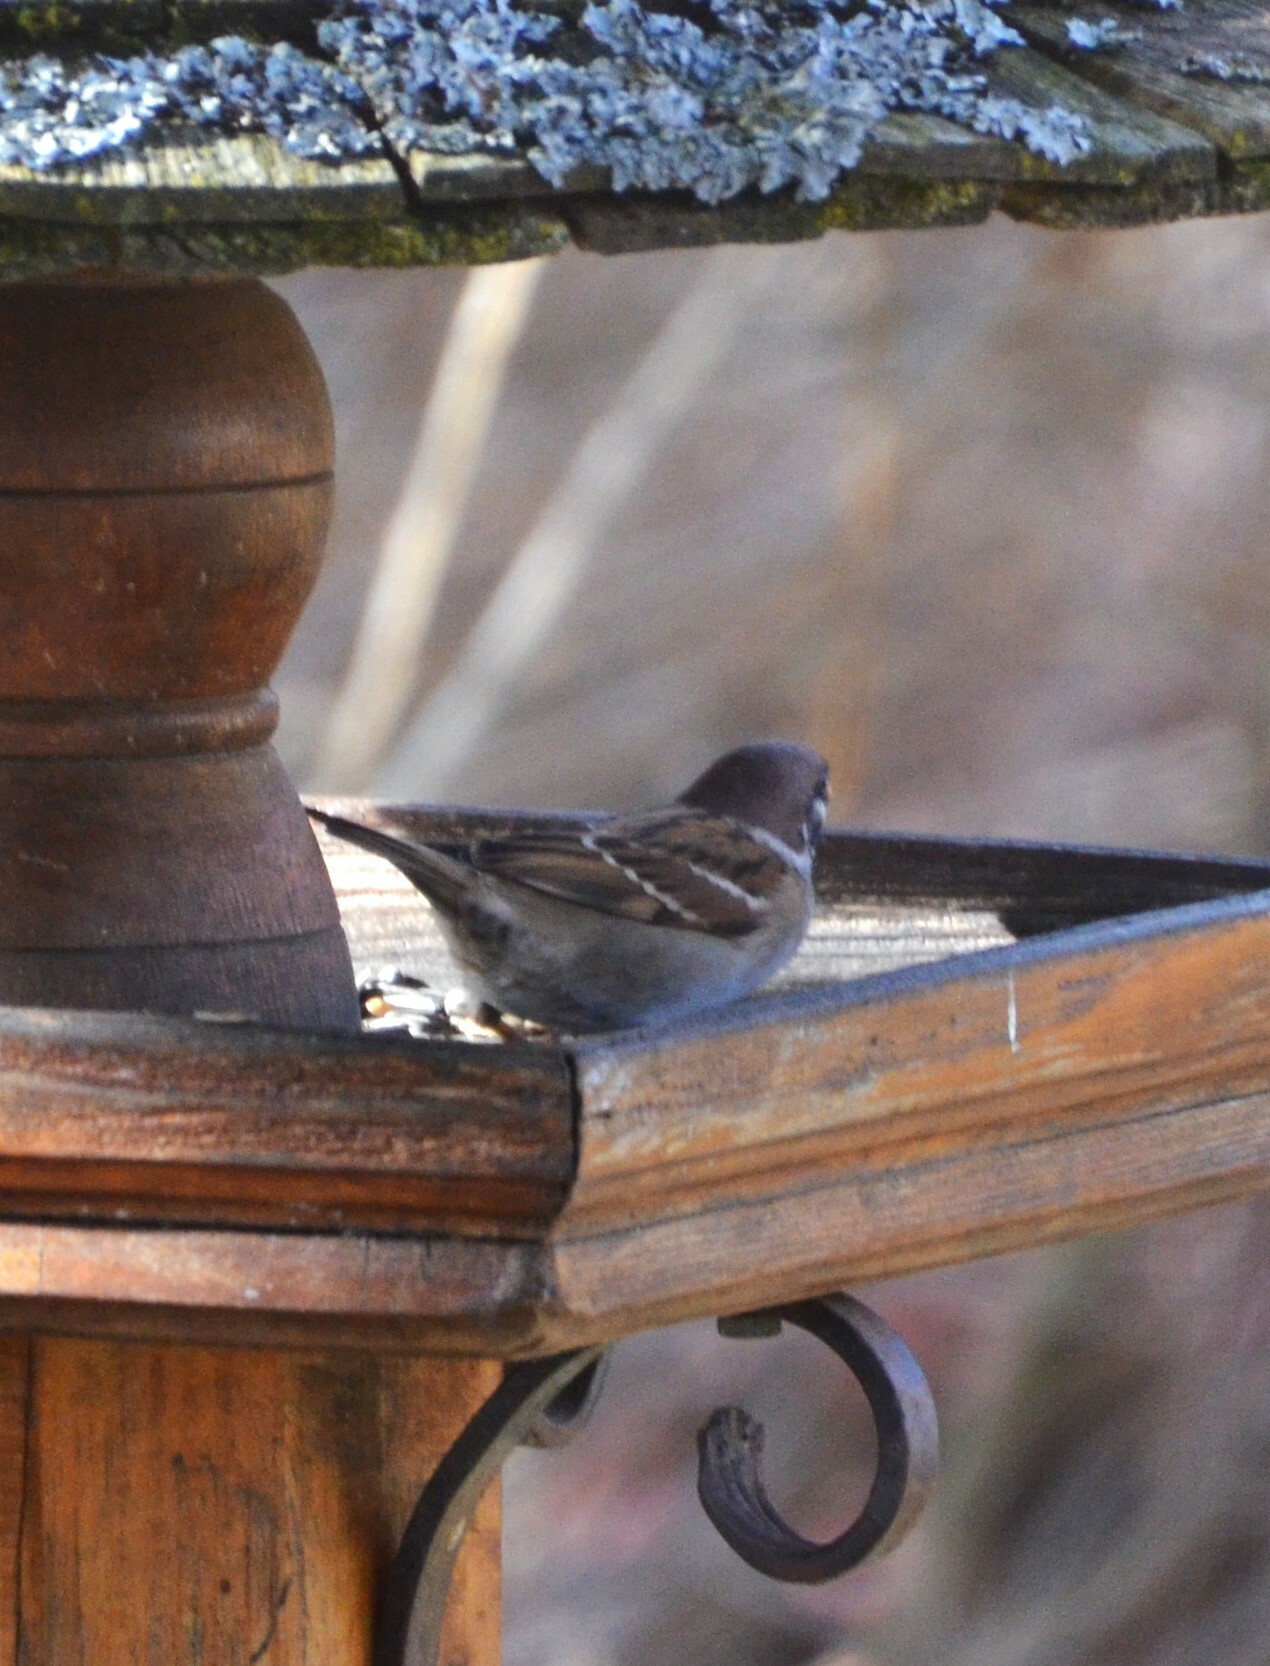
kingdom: Animalia
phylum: Chordata
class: Aves
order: Passeriformes
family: Passeridae
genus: Passer
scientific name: Passer montanus
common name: Eurasian tree sparrow
